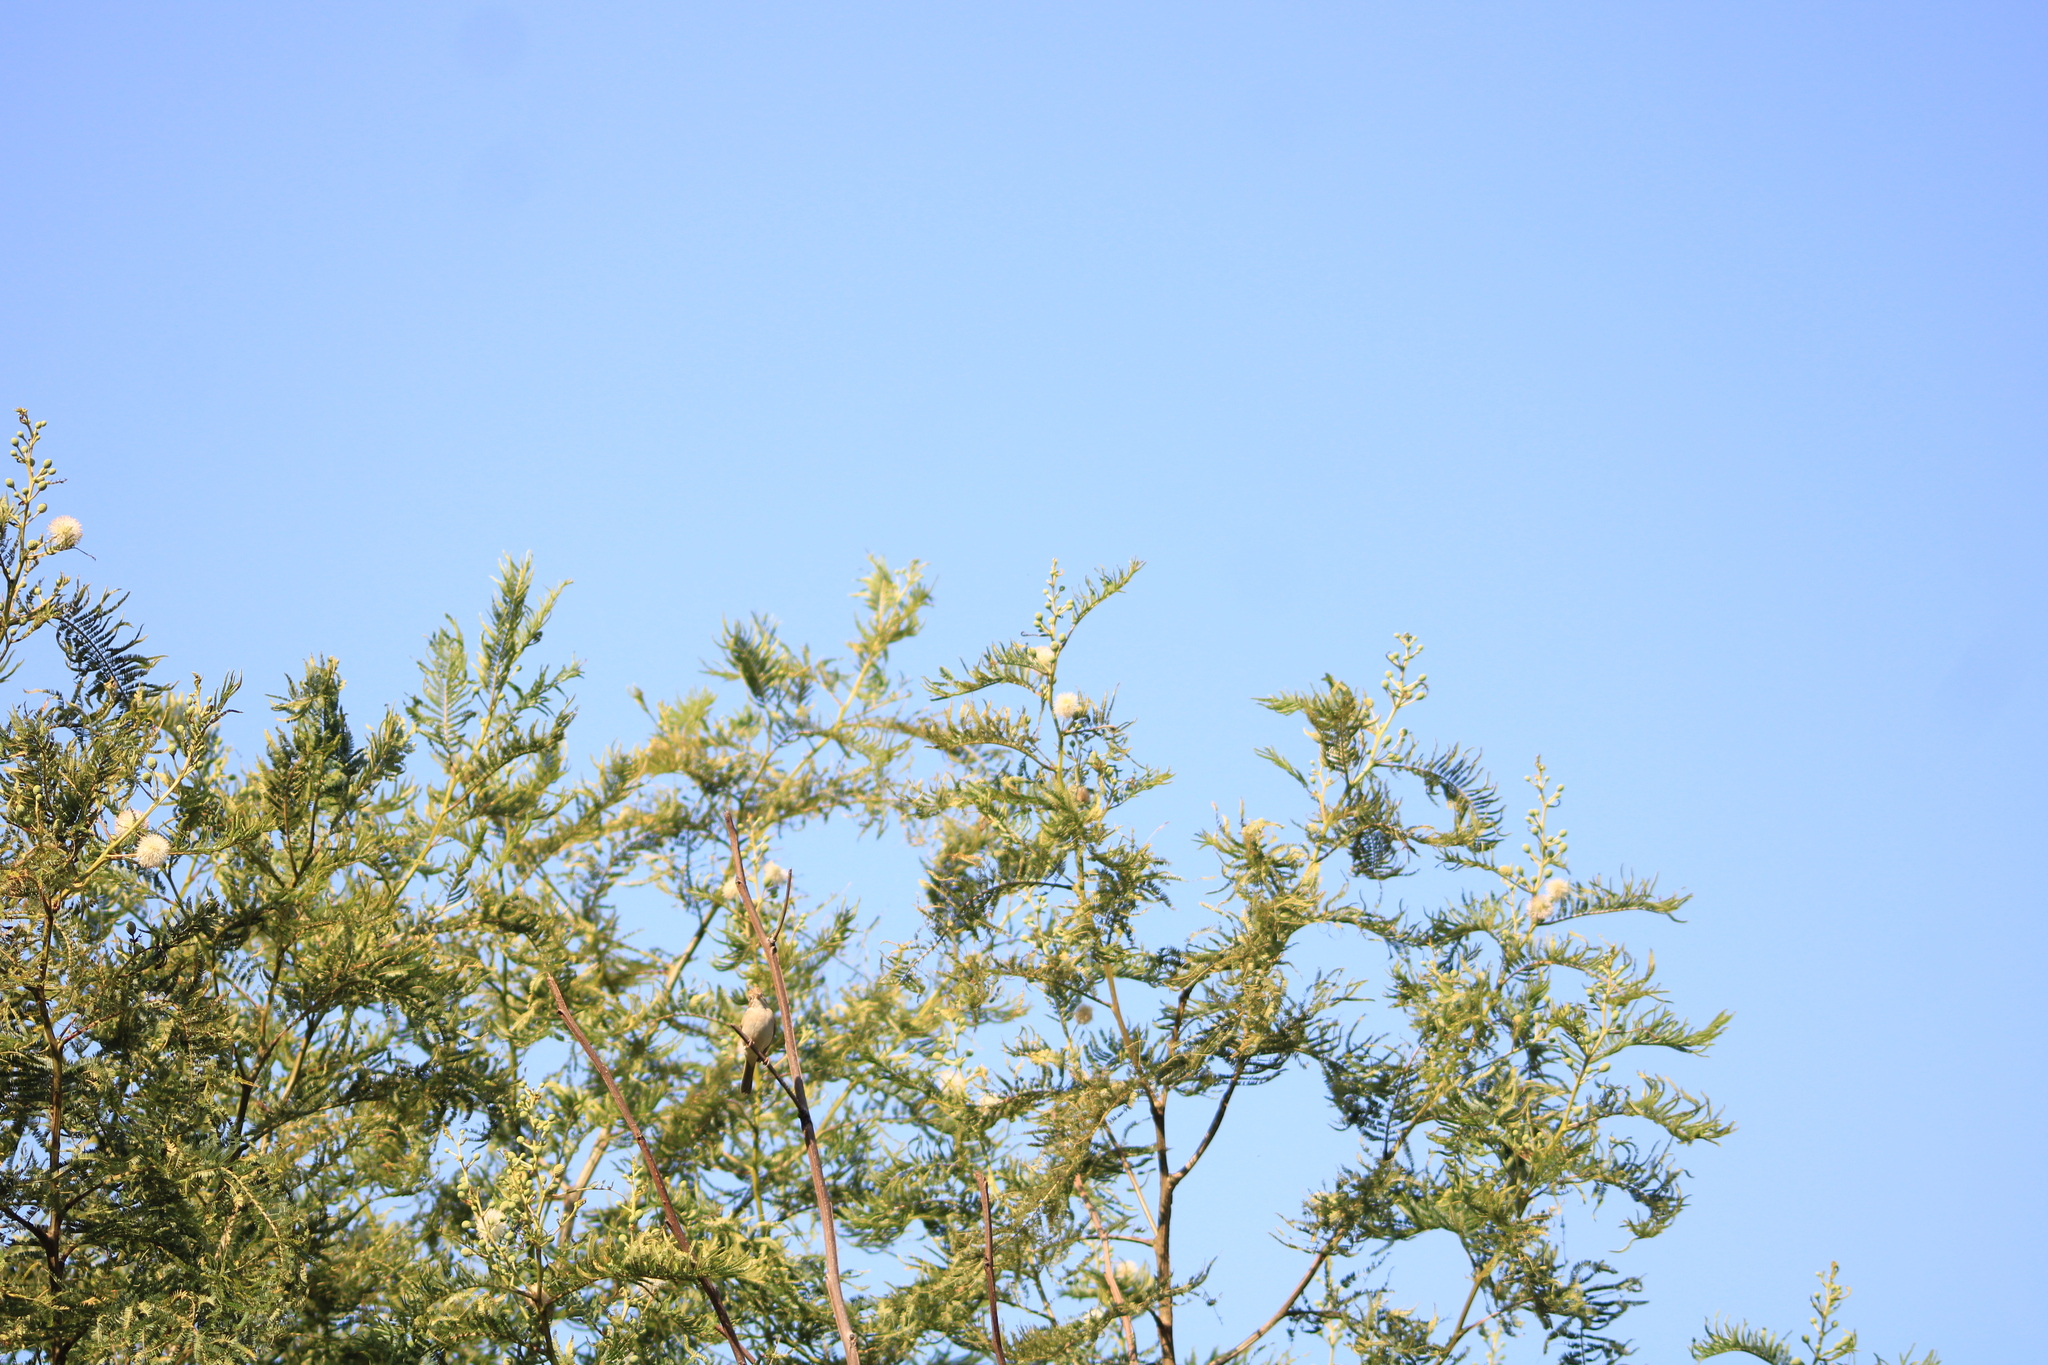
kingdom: Plantae
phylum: Tracheophyta
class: Magnoliopsida
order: Fabales
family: Fabaceae
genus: Leucaena
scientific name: Leucaena esculenta
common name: Guaje
